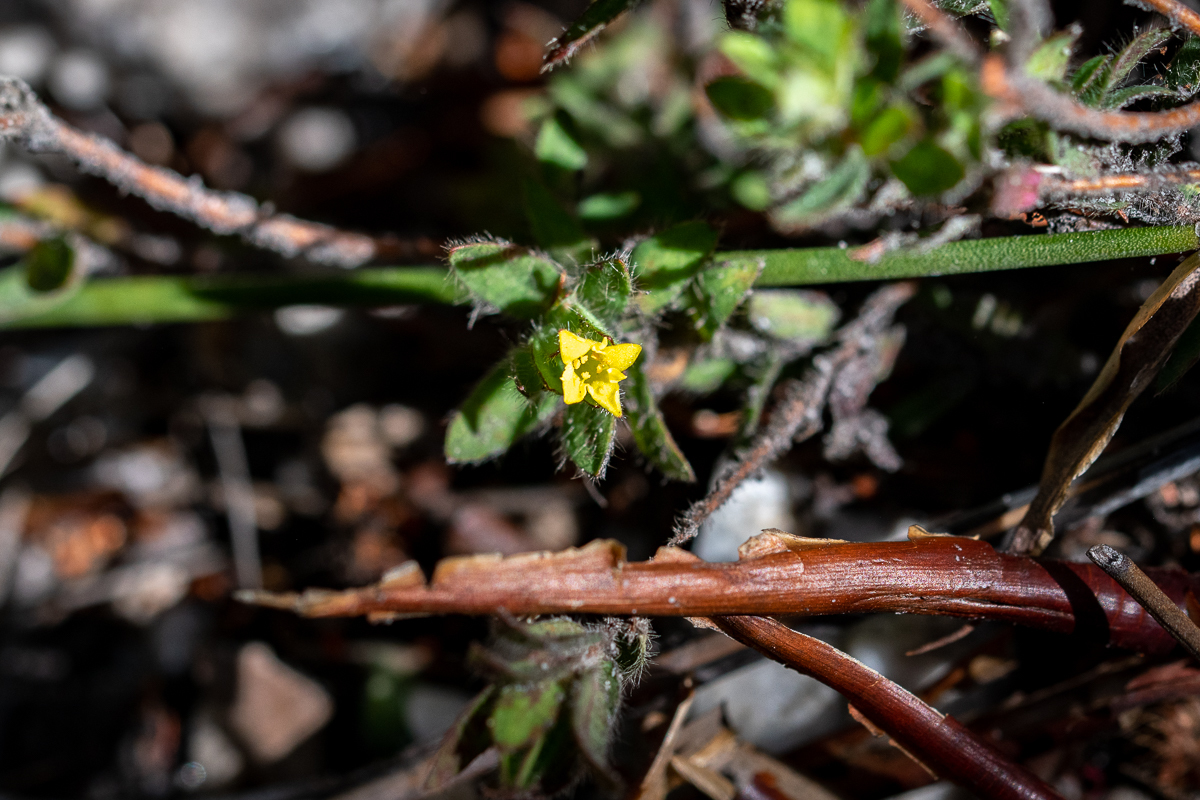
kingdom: Plantae
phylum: Tracheophyta
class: Magnoliopsida
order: Malvales
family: Thymelaeaceae
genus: Gnidia
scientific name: Gnidia humilis
